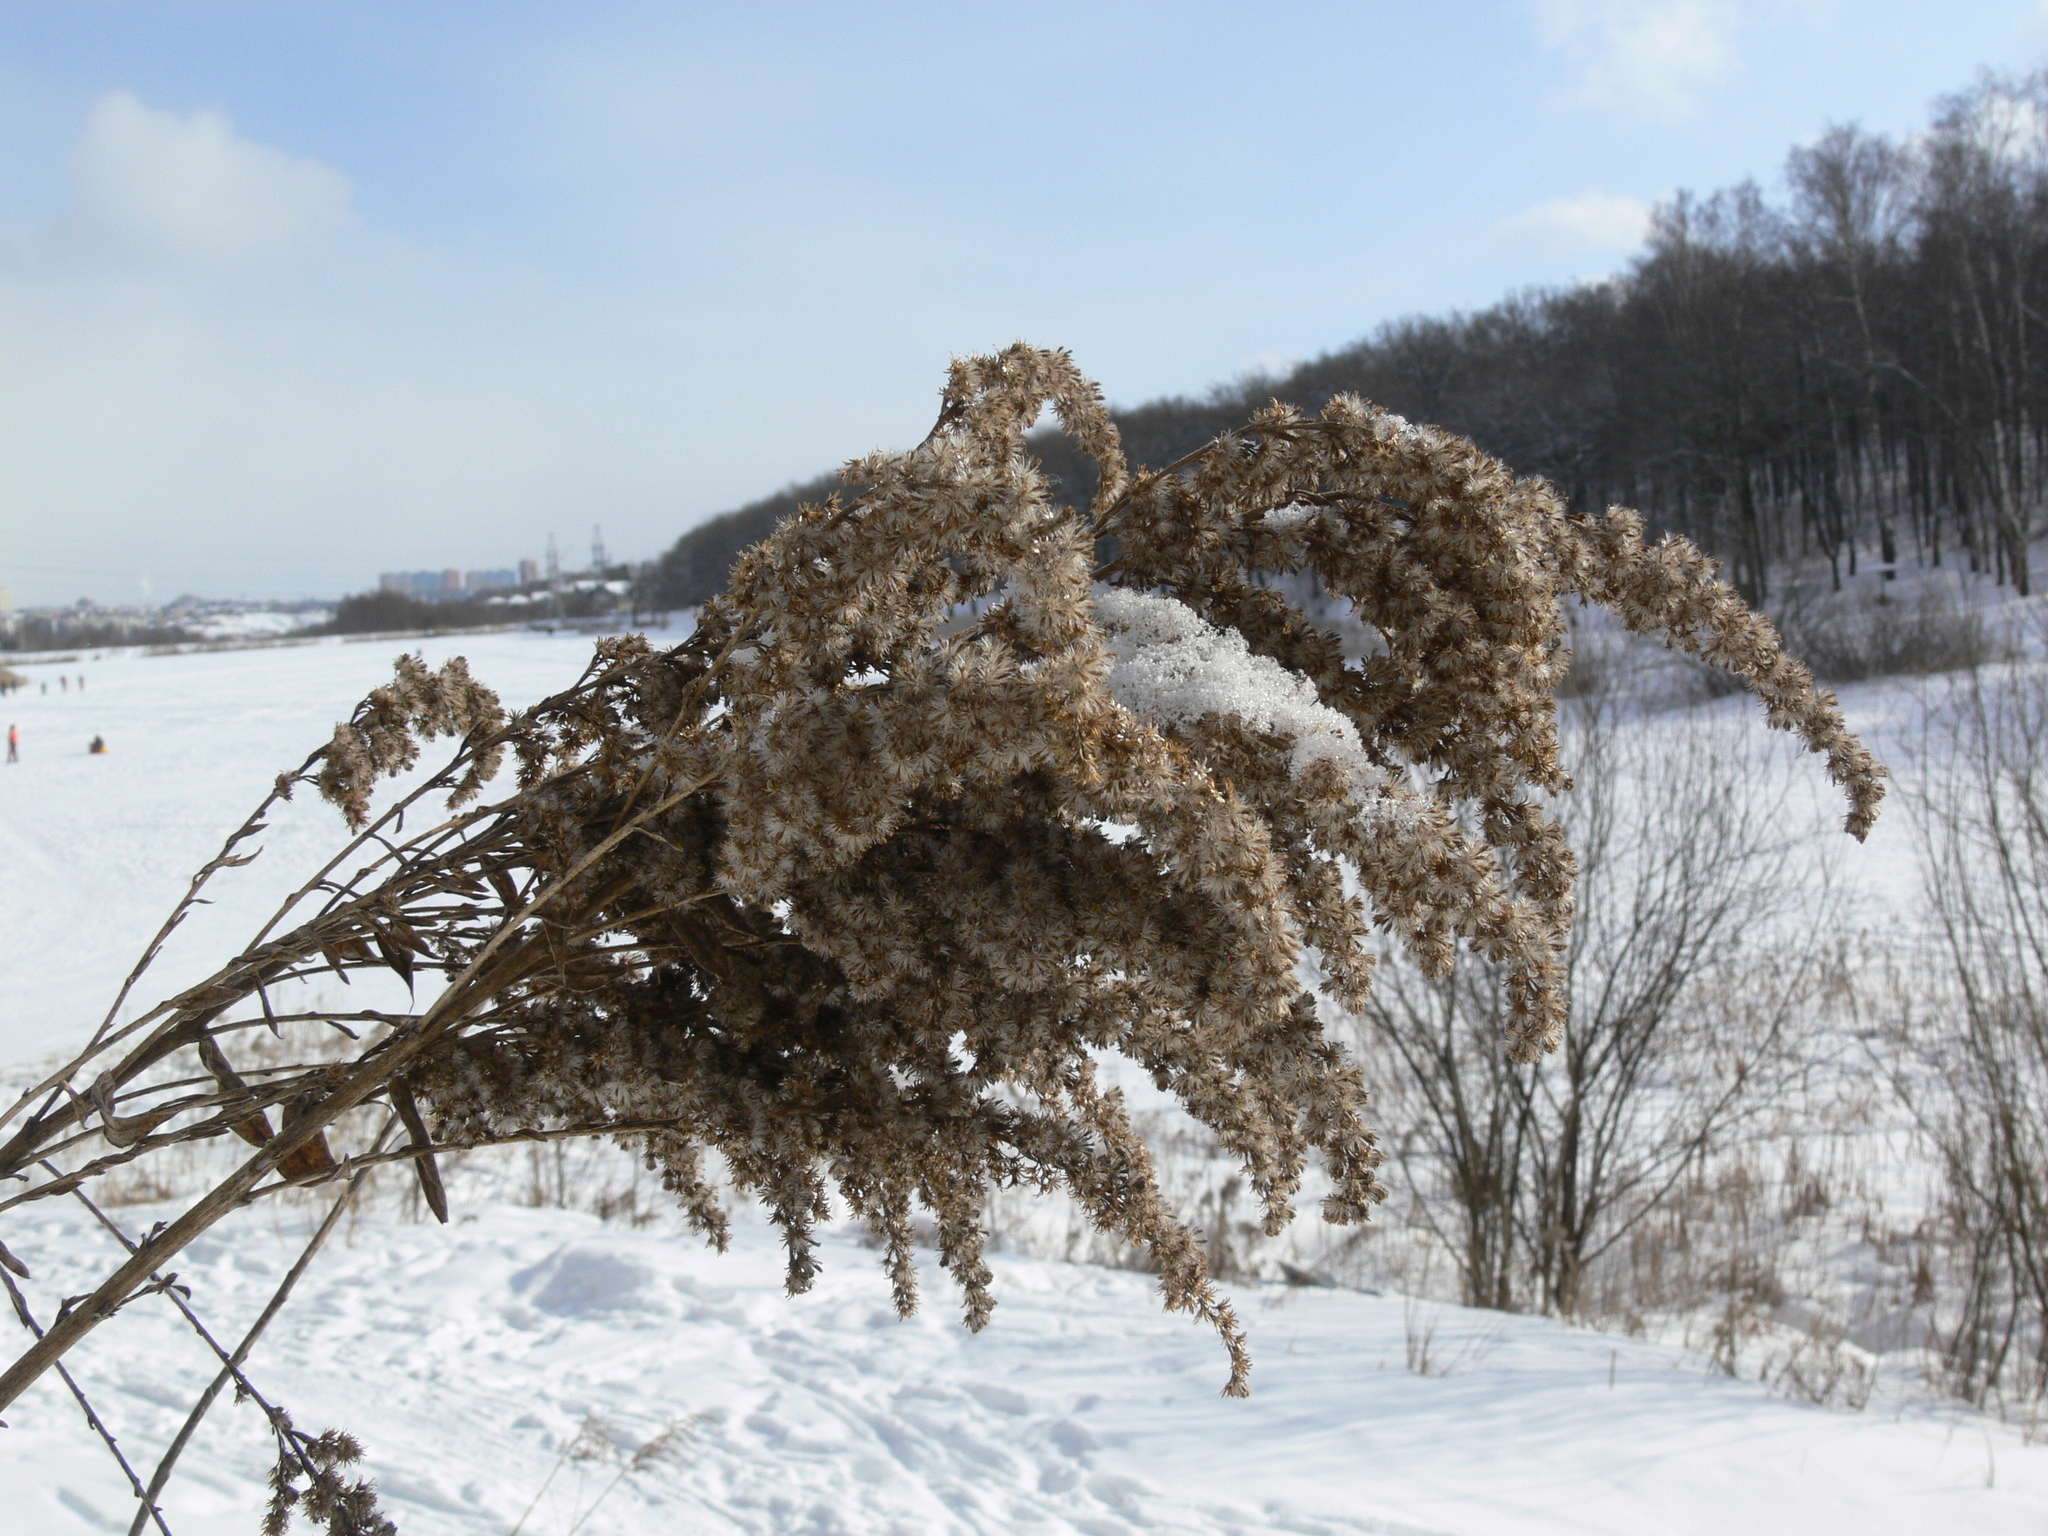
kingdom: Plantae
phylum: Tracheophyta
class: Magnoliopsida
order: Asterales
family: Asteraceae
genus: Solidago
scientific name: Solidago canadensis
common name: Canada goldenrod
